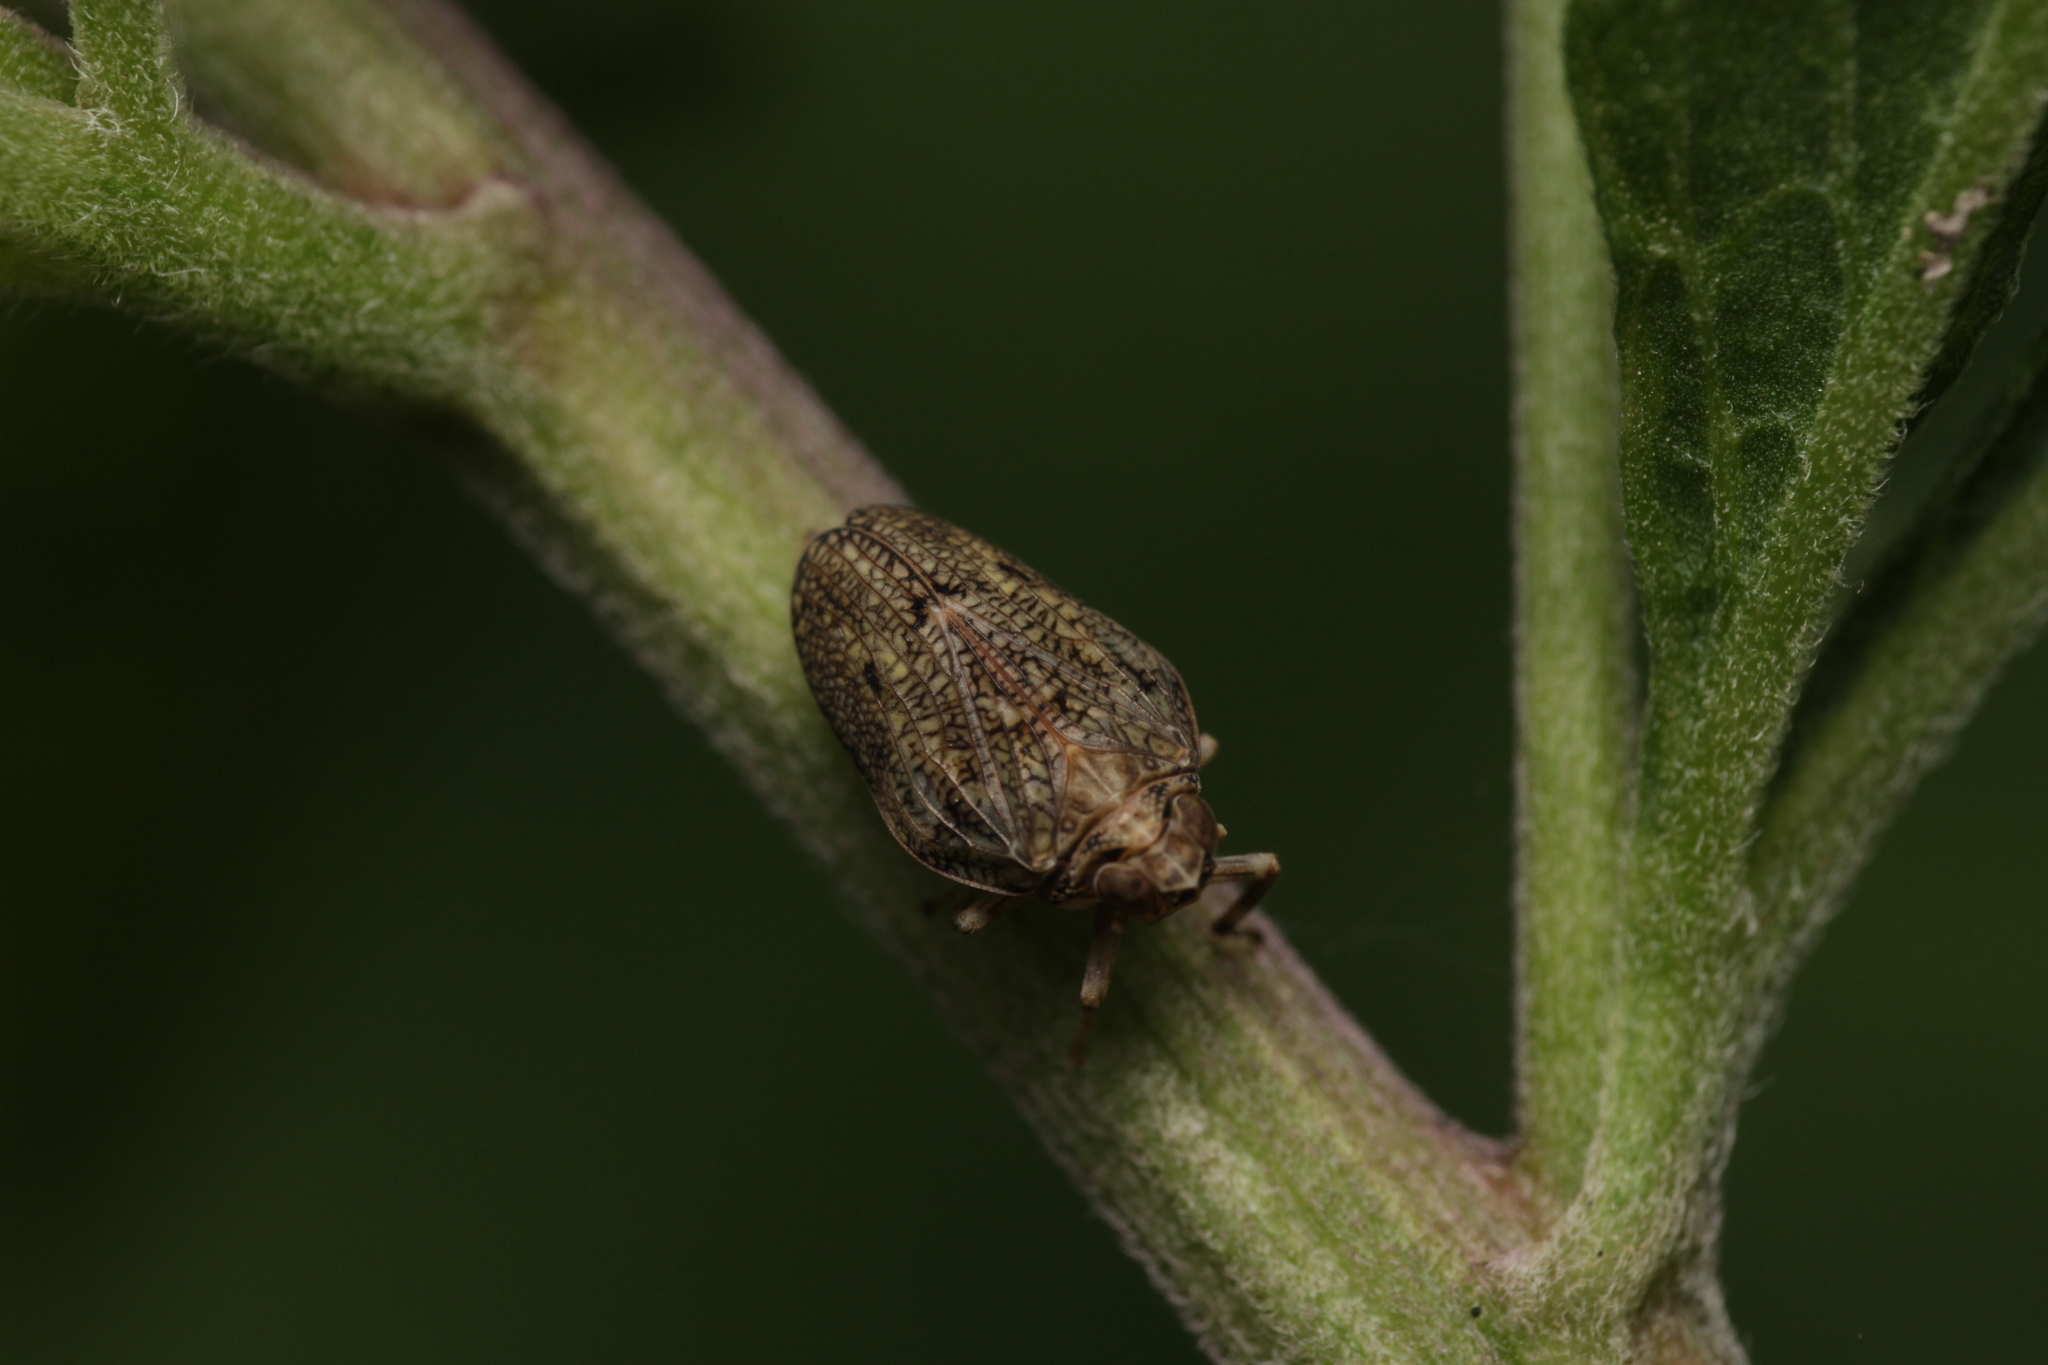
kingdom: Animalia
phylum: Arthropoda
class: Insecta
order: Hemiptera
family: Issidae
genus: Issus
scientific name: Issus coleoptratus
